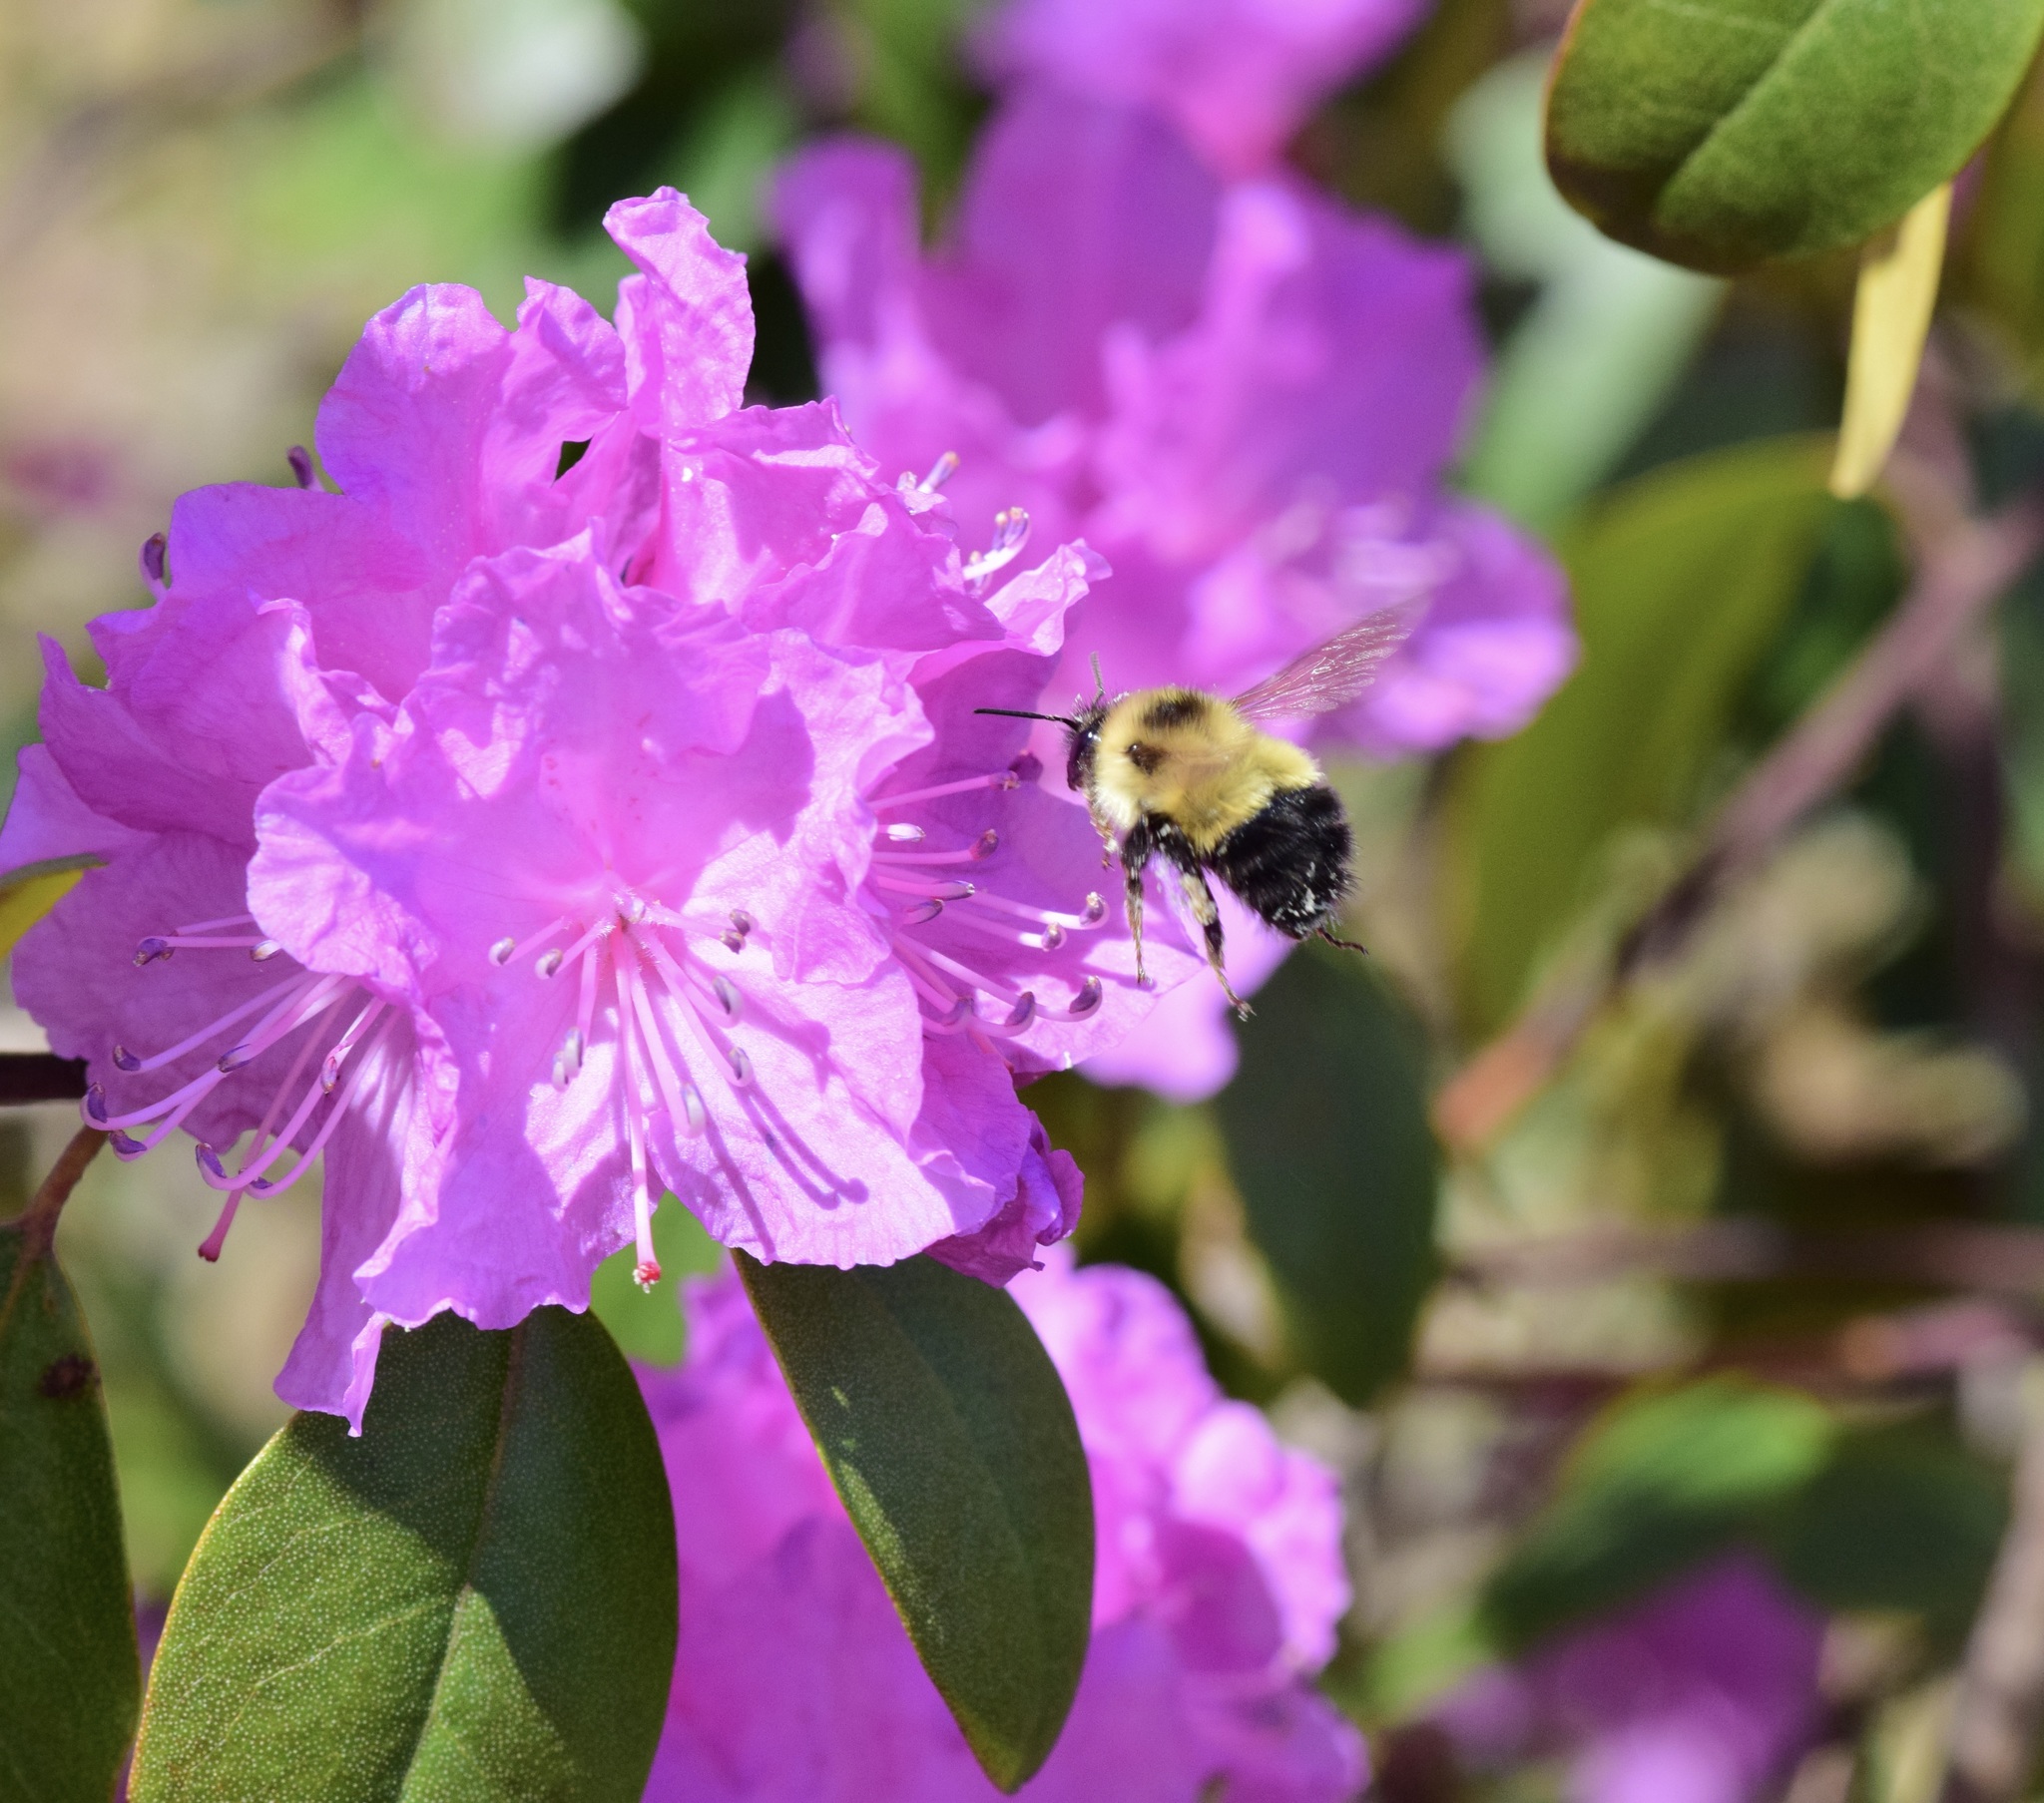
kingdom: Animalia
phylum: Arthropoda
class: Insecta
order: Hymenoptera
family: Apidae
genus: Pyrobombus
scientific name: Pyrobombus
